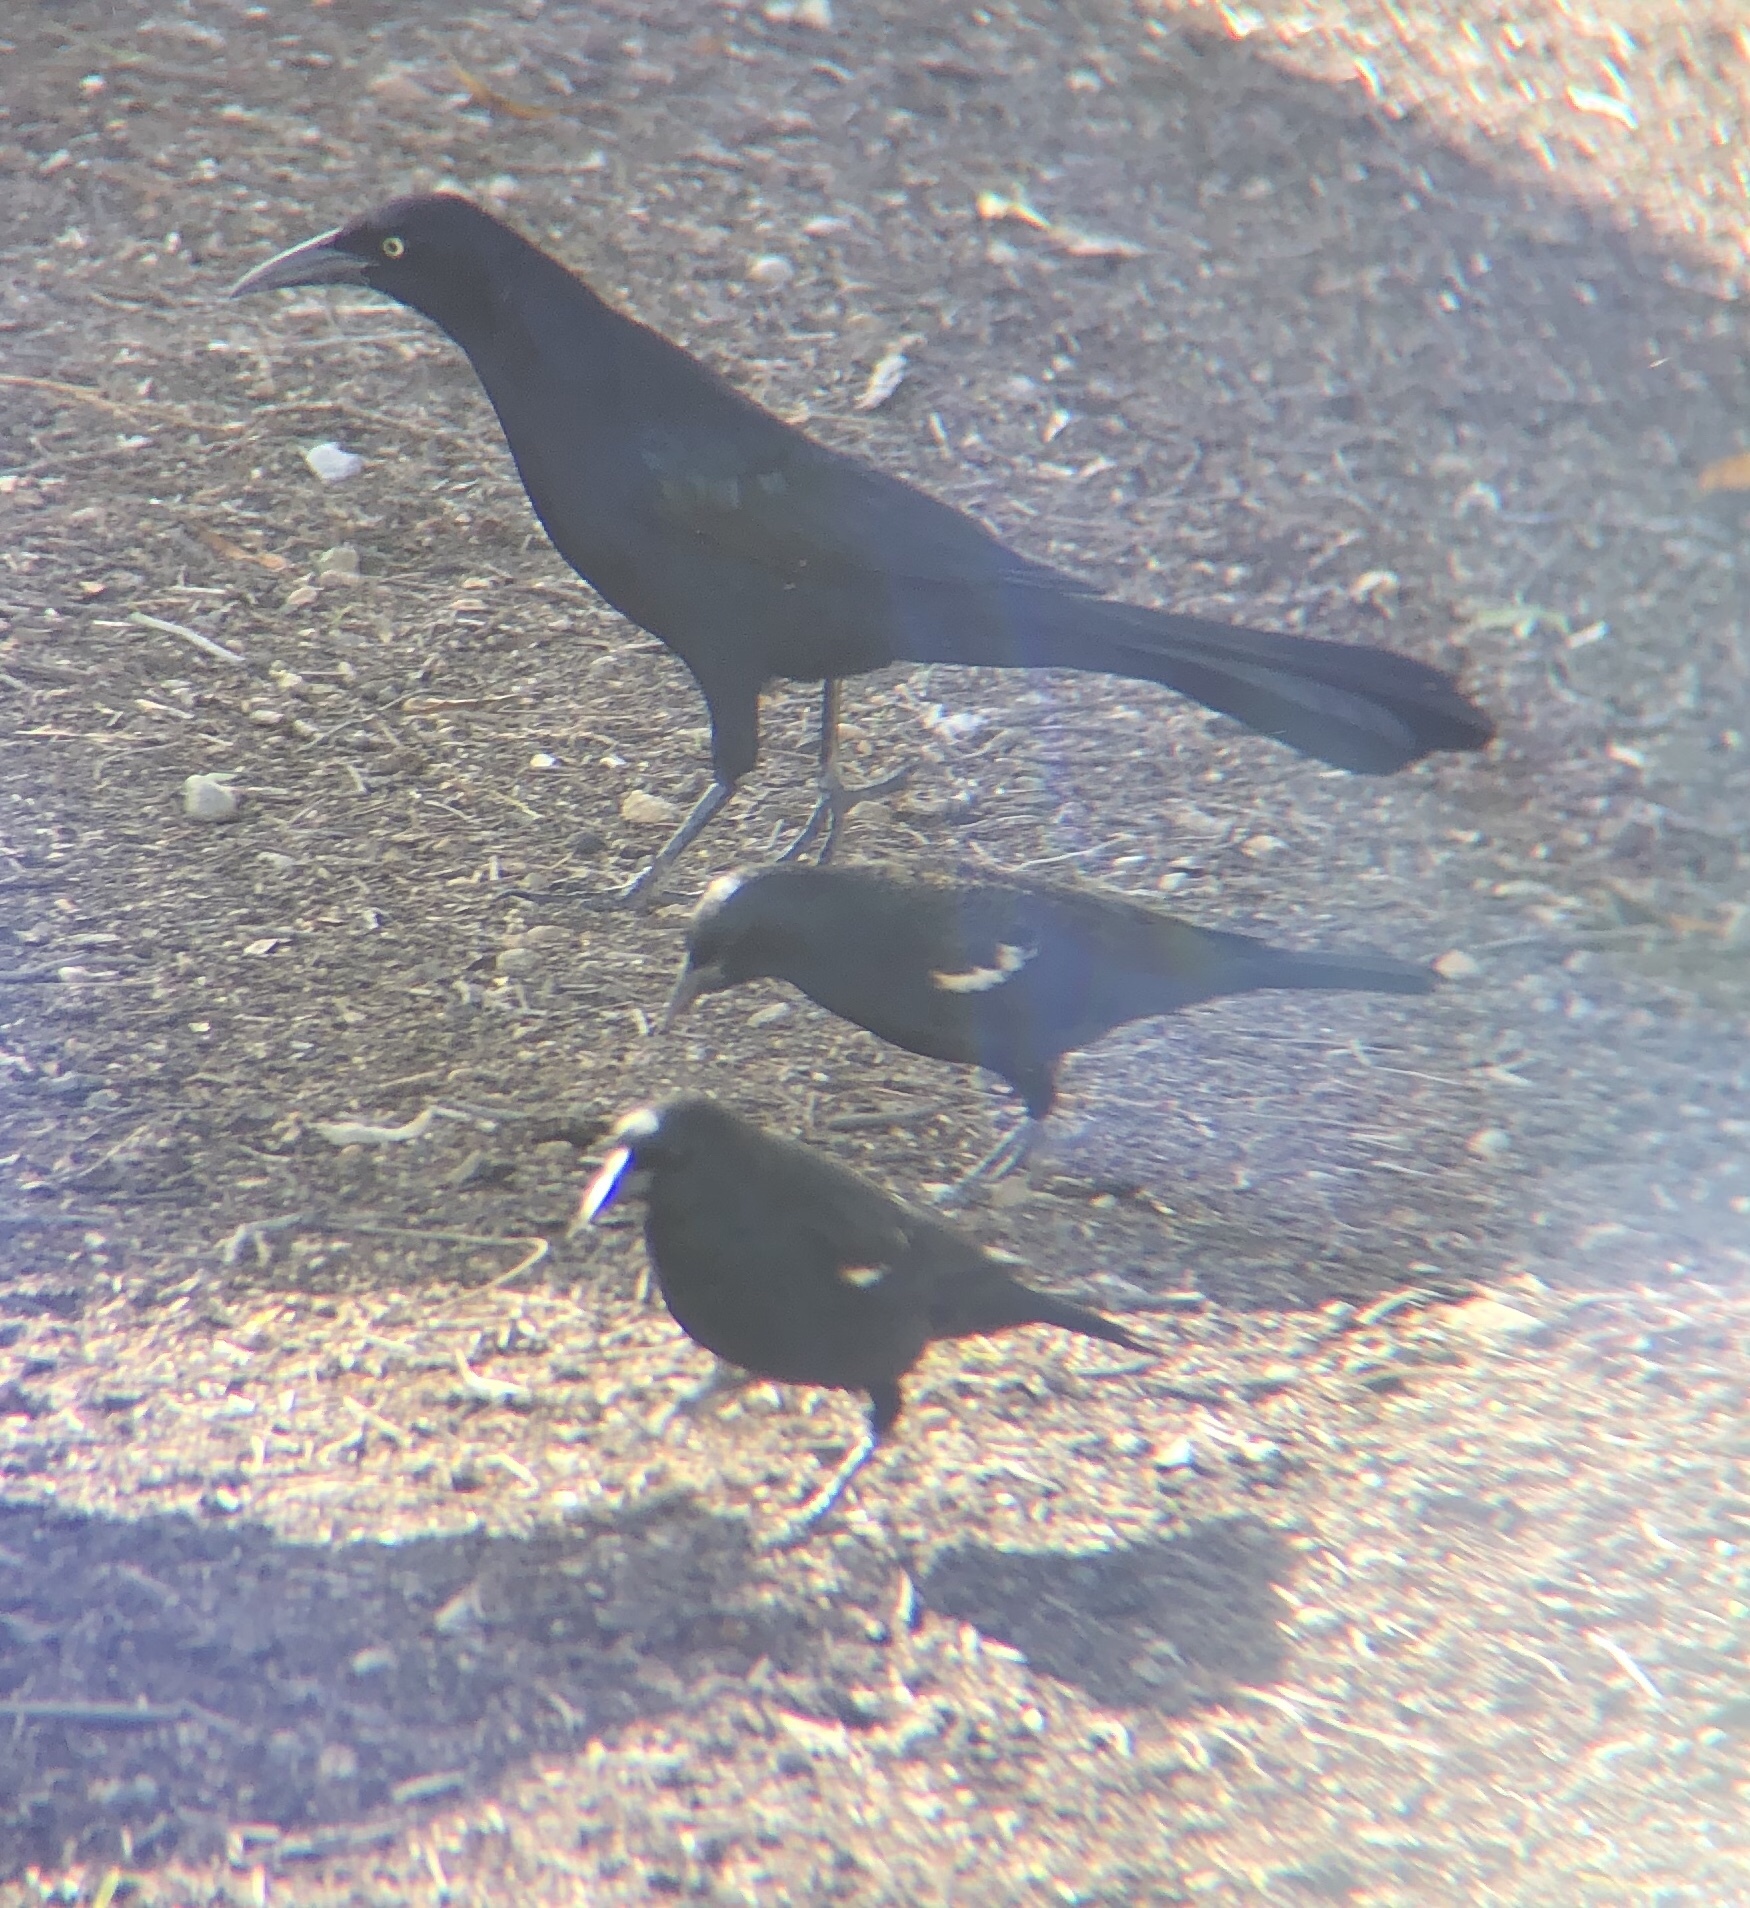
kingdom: Animalia
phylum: Chordata
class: Aves
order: Passeriformes
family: Icteridae
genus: Agelaius
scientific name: Agelaius tricolor
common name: Tricolored blackbird
